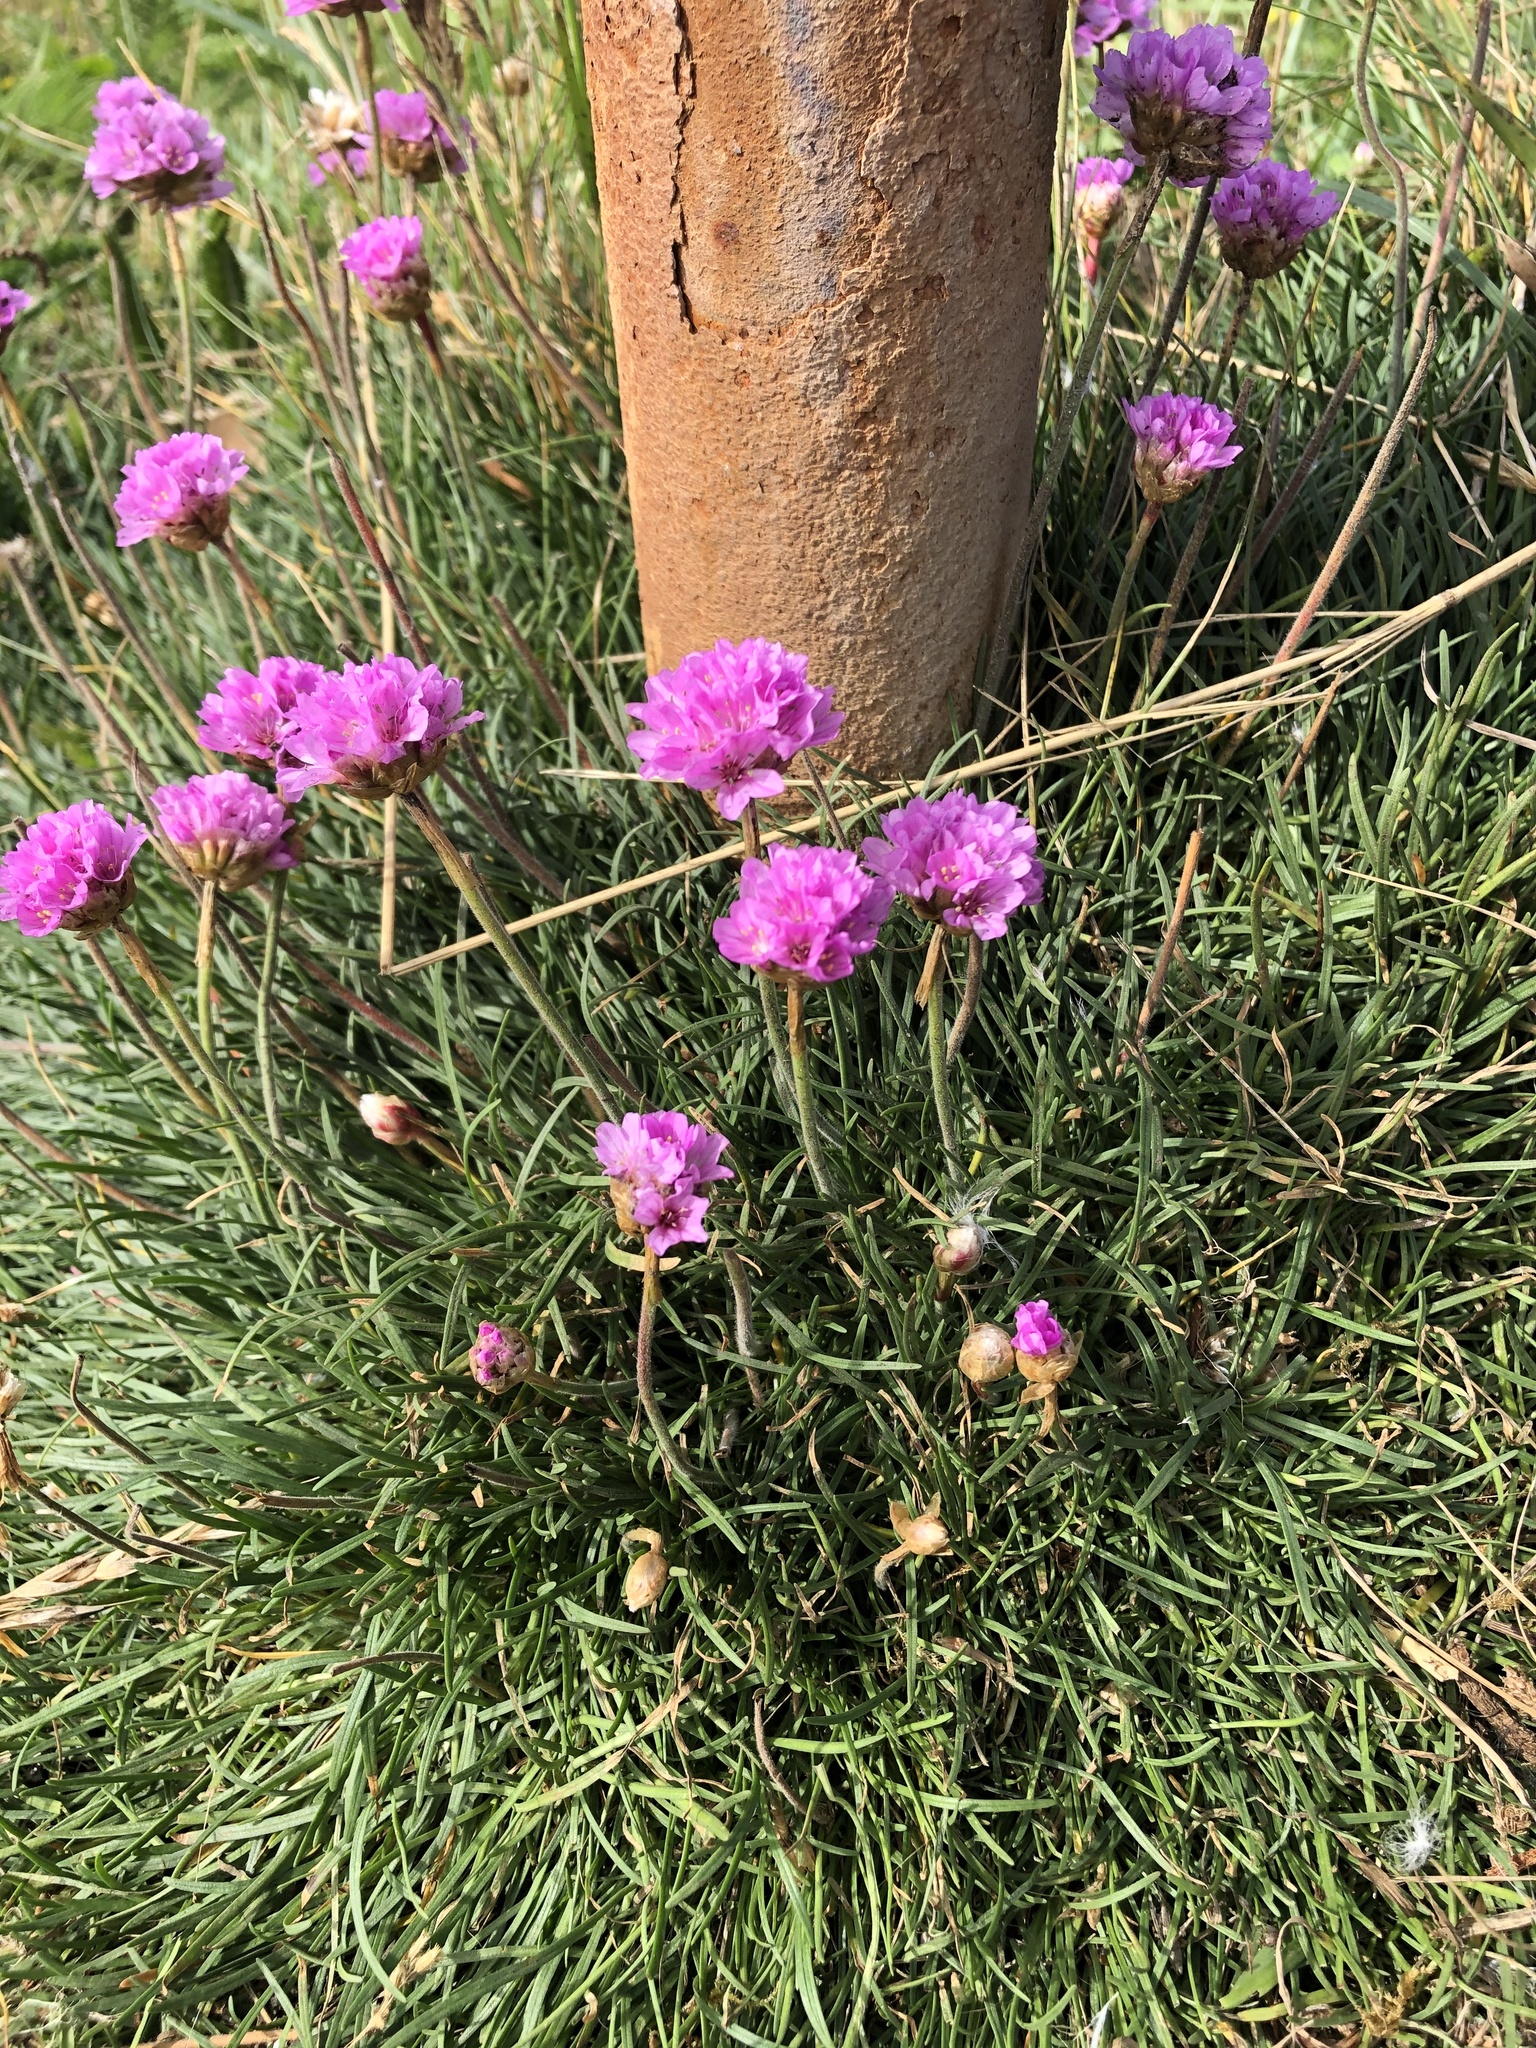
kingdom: Plantae
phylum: Tracheophyta
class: Magnoliopsida
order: Caryophyllales
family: Plumbaginaceae
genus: Armeria
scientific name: Armeria maritima
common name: Thrift
